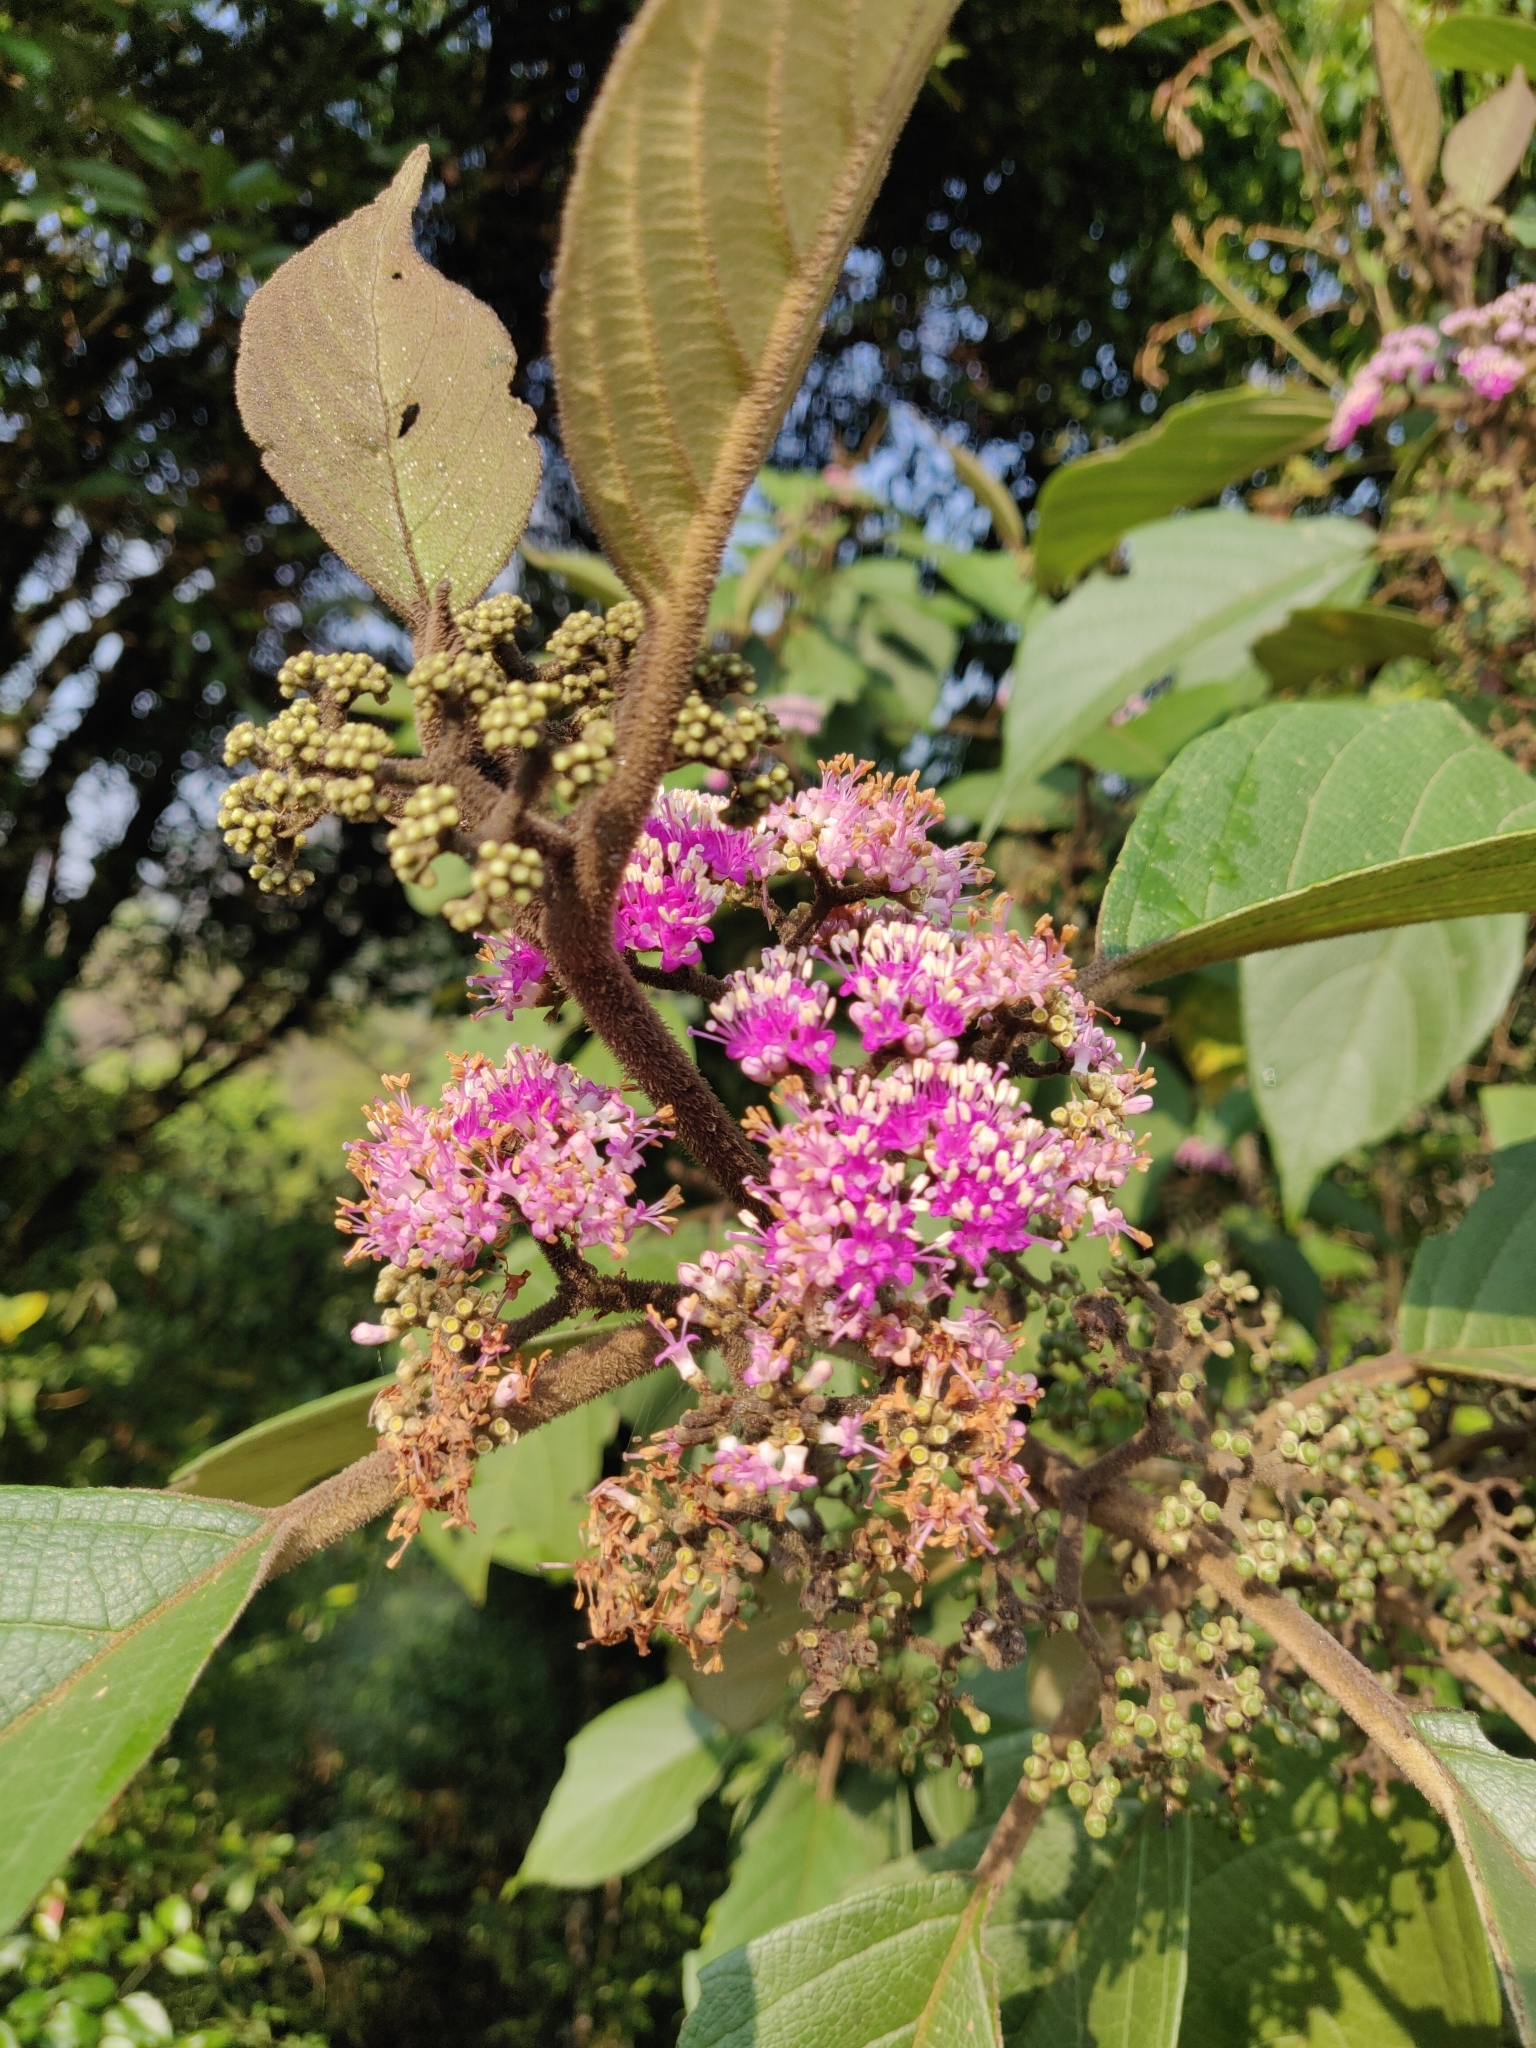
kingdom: Plantae
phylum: Tracheophyta
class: Magnoliopsida
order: Lamiales
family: Lamiaceae
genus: Callicarpa
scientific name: Callicarpa tomentosa
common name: Great woolly malayan-lilac
